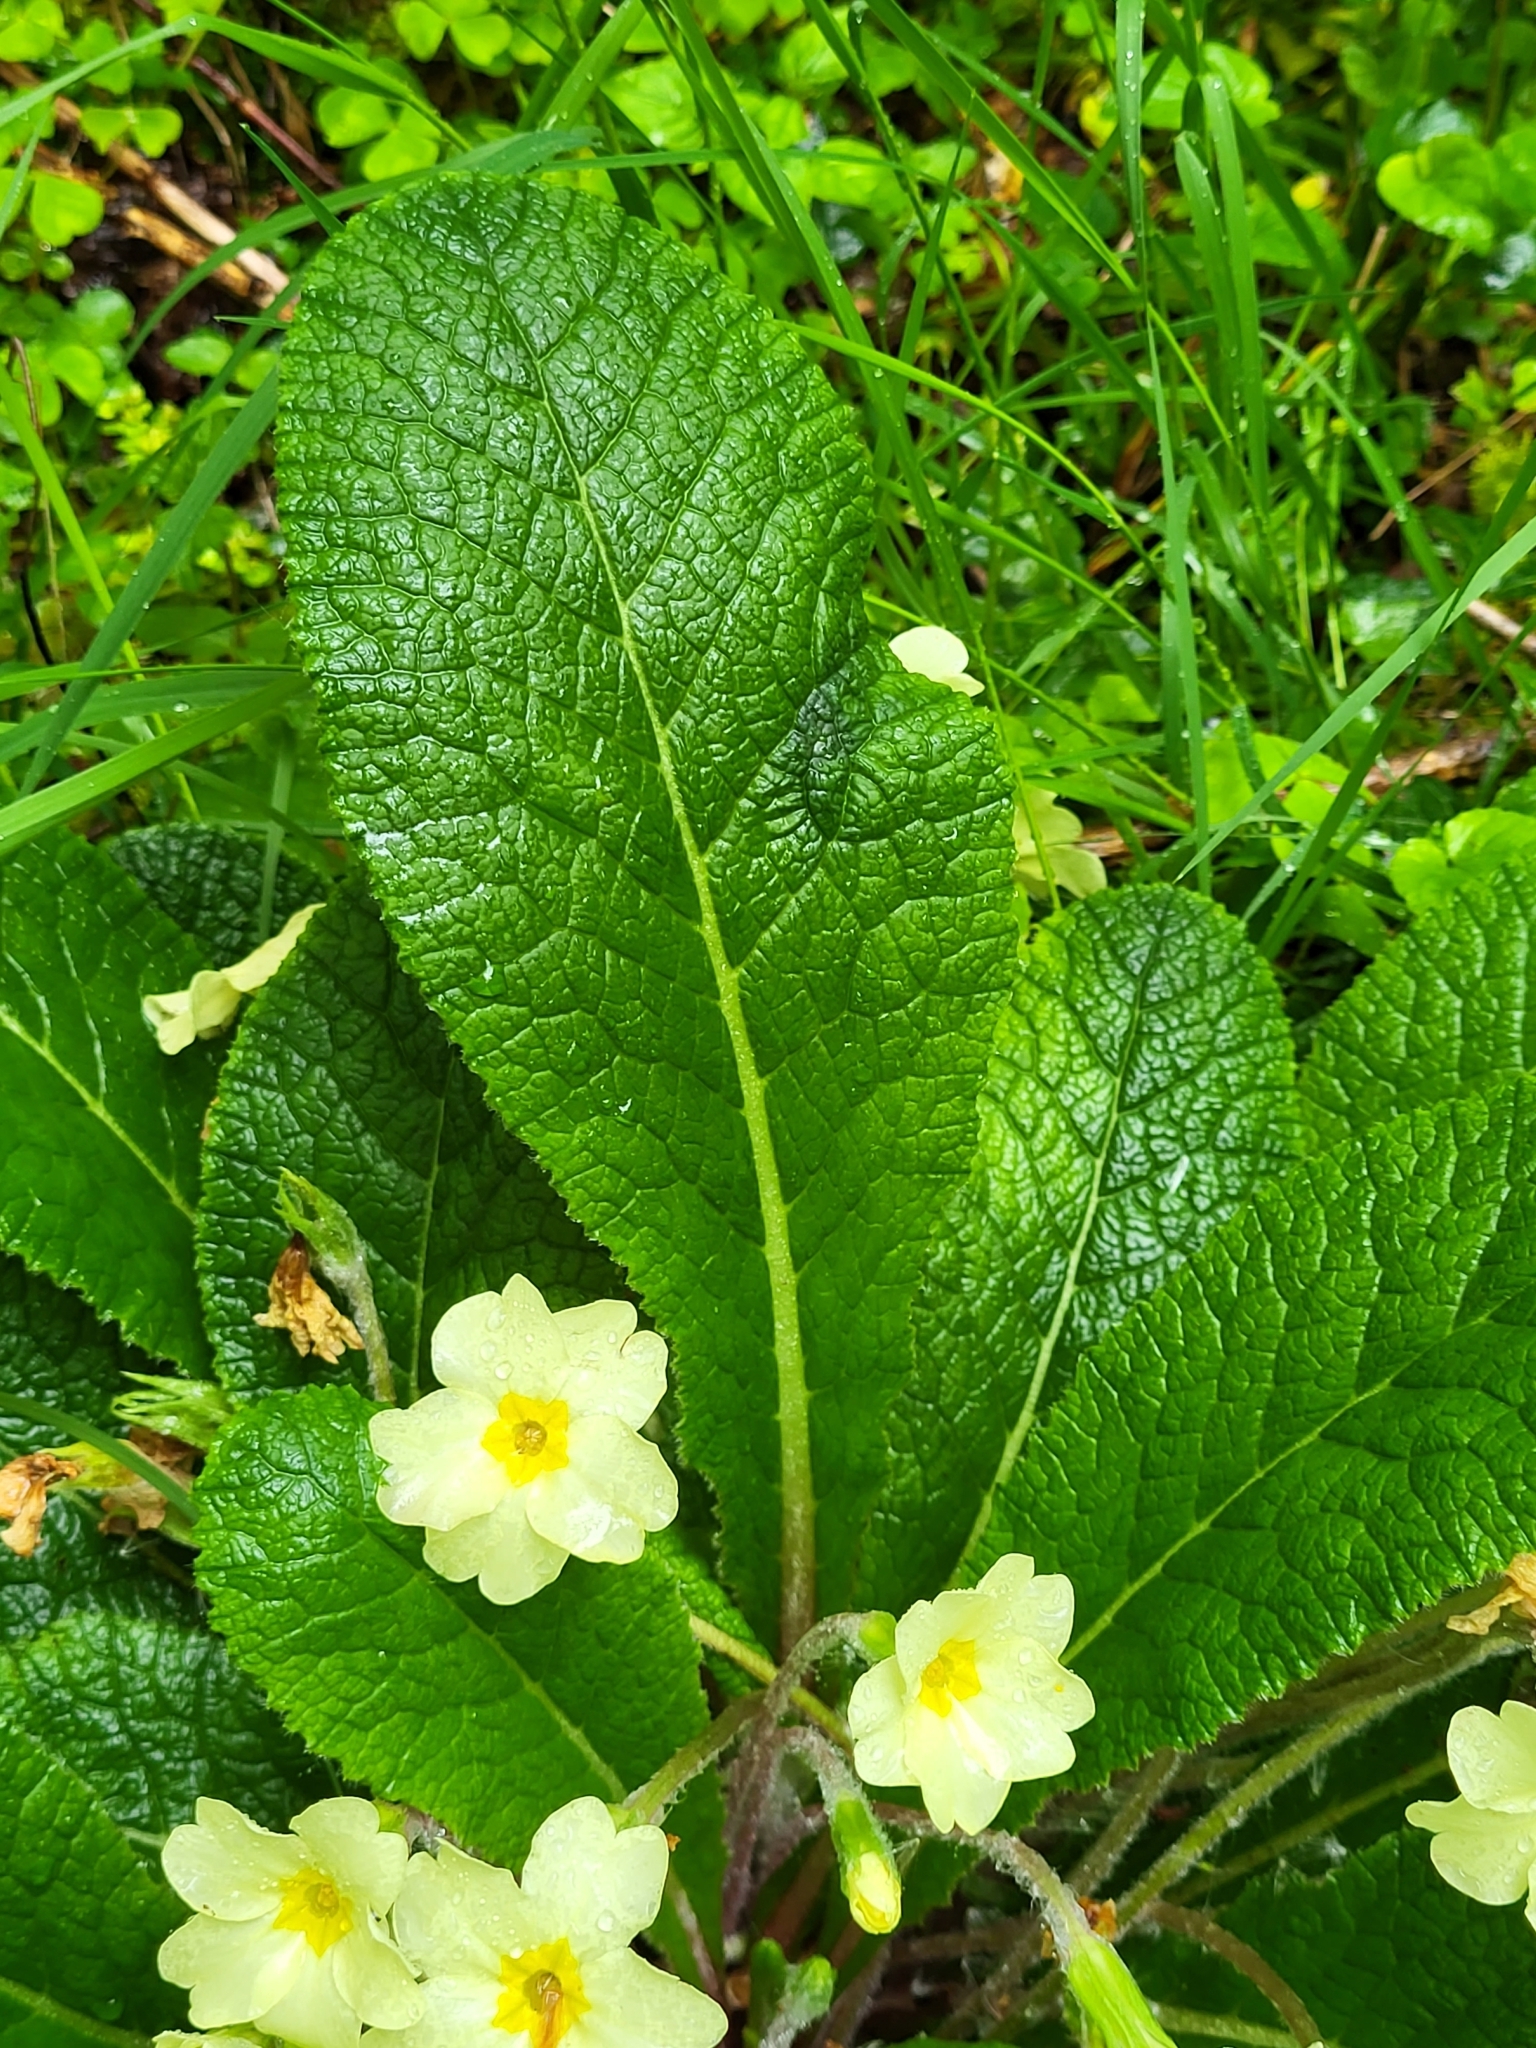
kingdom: Plantae
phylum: Tracheophyta
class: Magnoliopsida
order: Ericales
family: Primulaceae
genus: Primula
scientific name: Primula vulgaris
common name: Primrose
